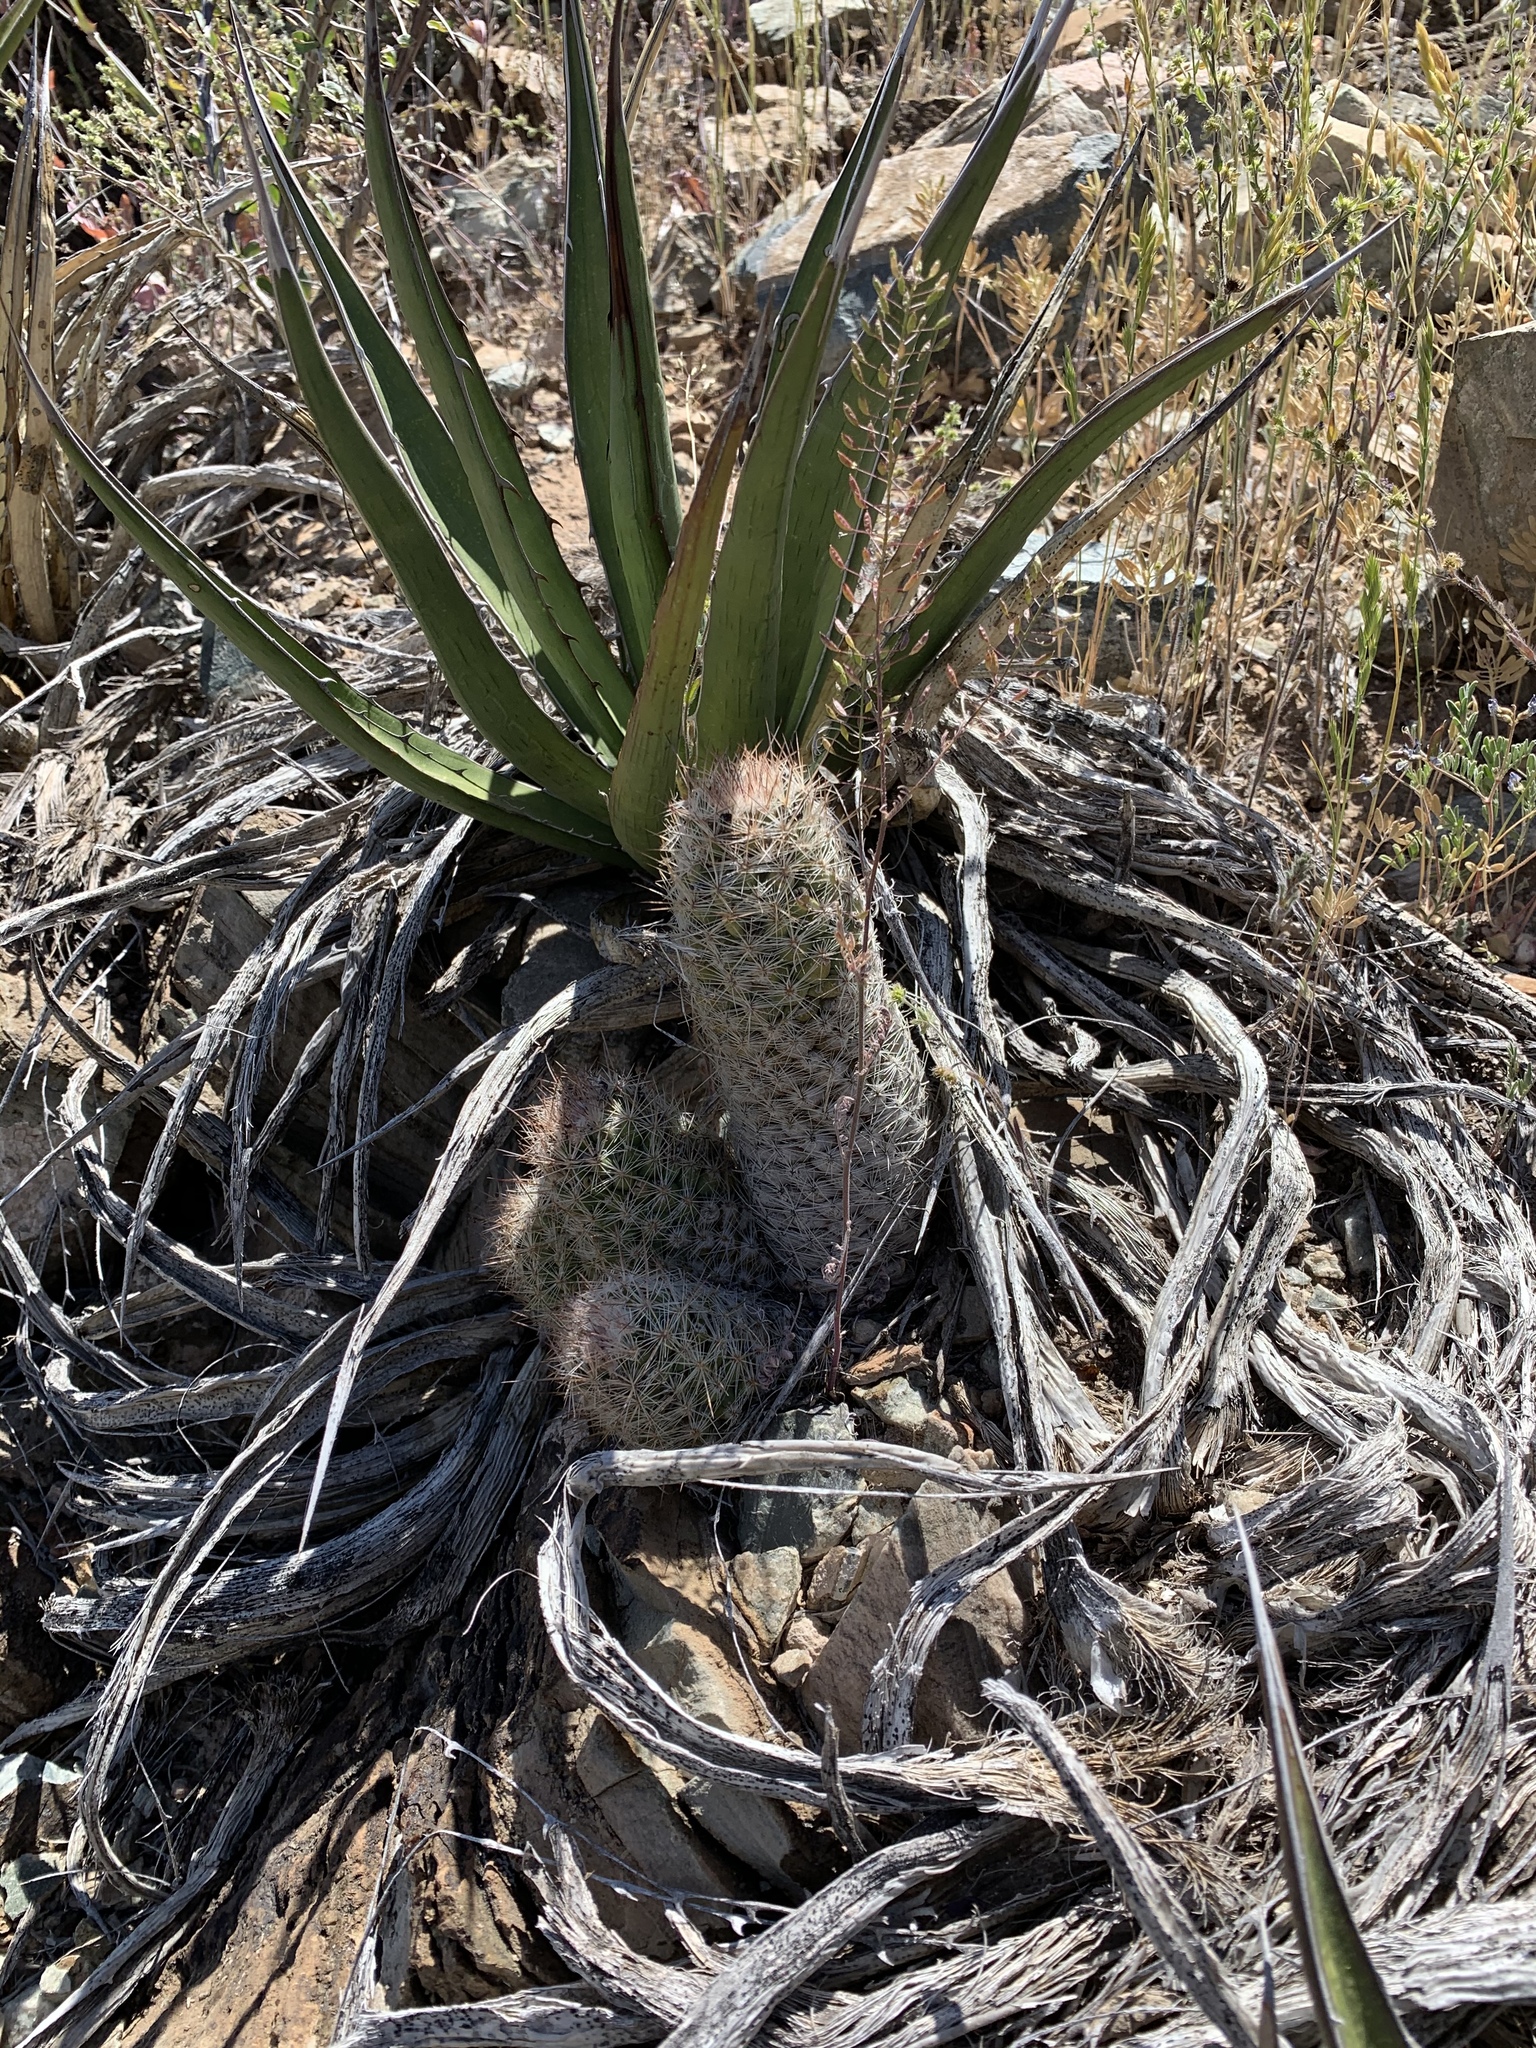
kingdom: Plantae
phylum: Tracheophyta
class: Magnoliopsida
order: Caryophyllales
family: Cactaceae
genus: Pelecyphora
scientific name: Pelecyphora tuberculosa
